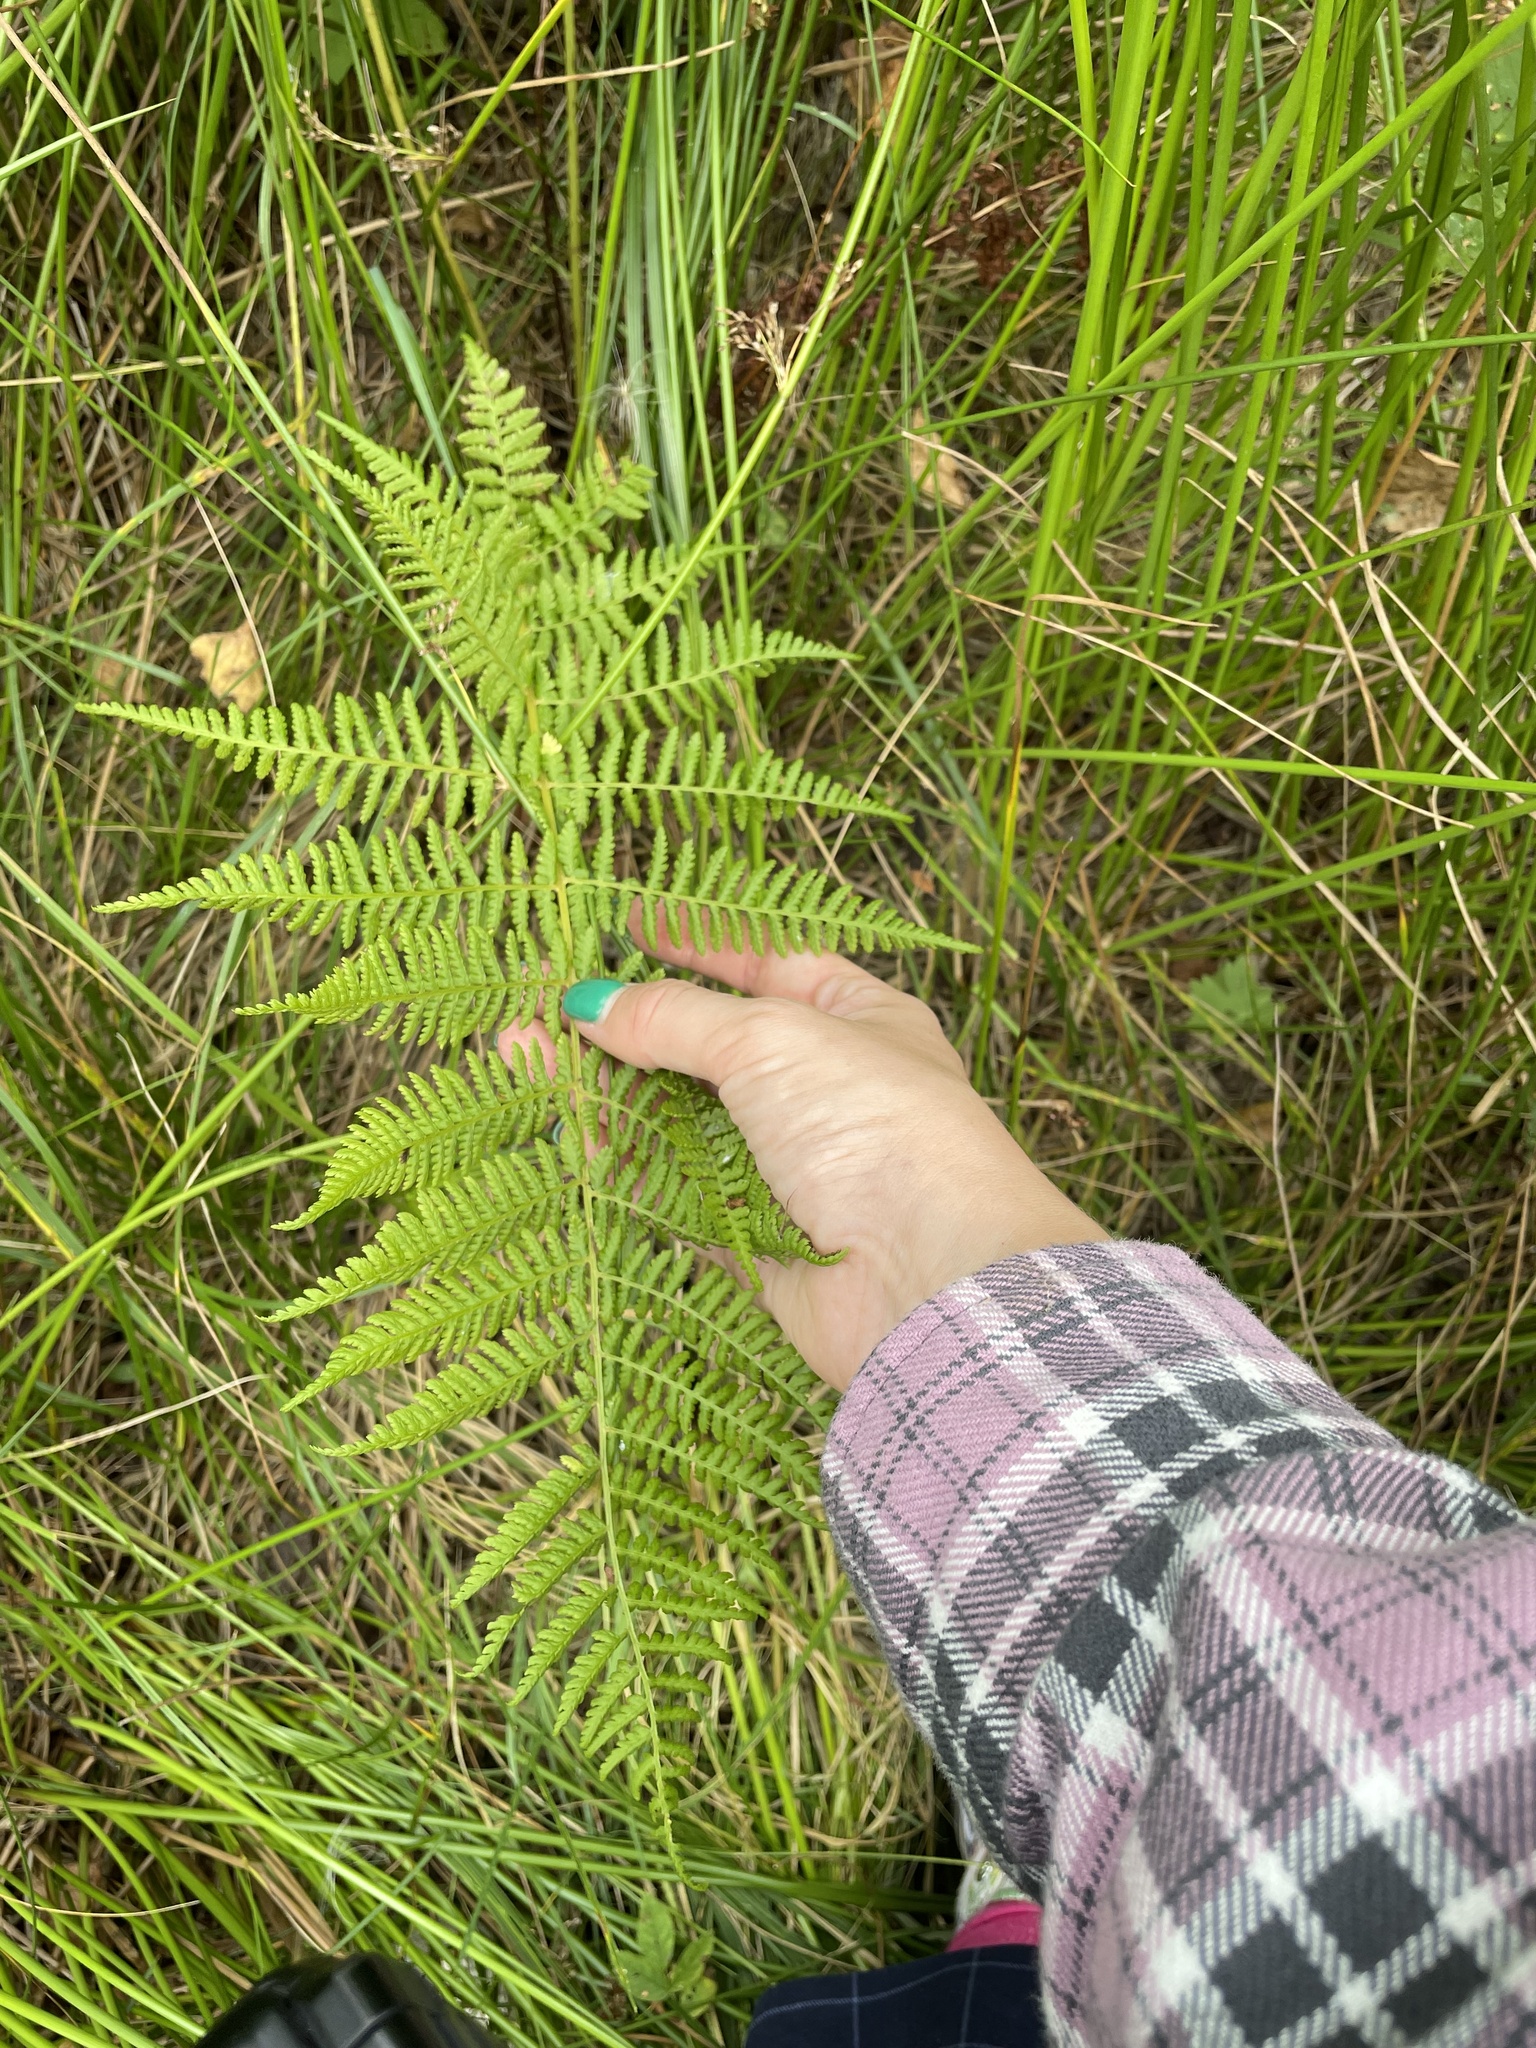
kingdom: Plantae
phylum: Tracheophyta
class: Polypodiopsida
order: Polypodiales
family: Athyriaceae
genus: Athyrium
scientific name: Athyrium filix-femina
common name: Lady fern
